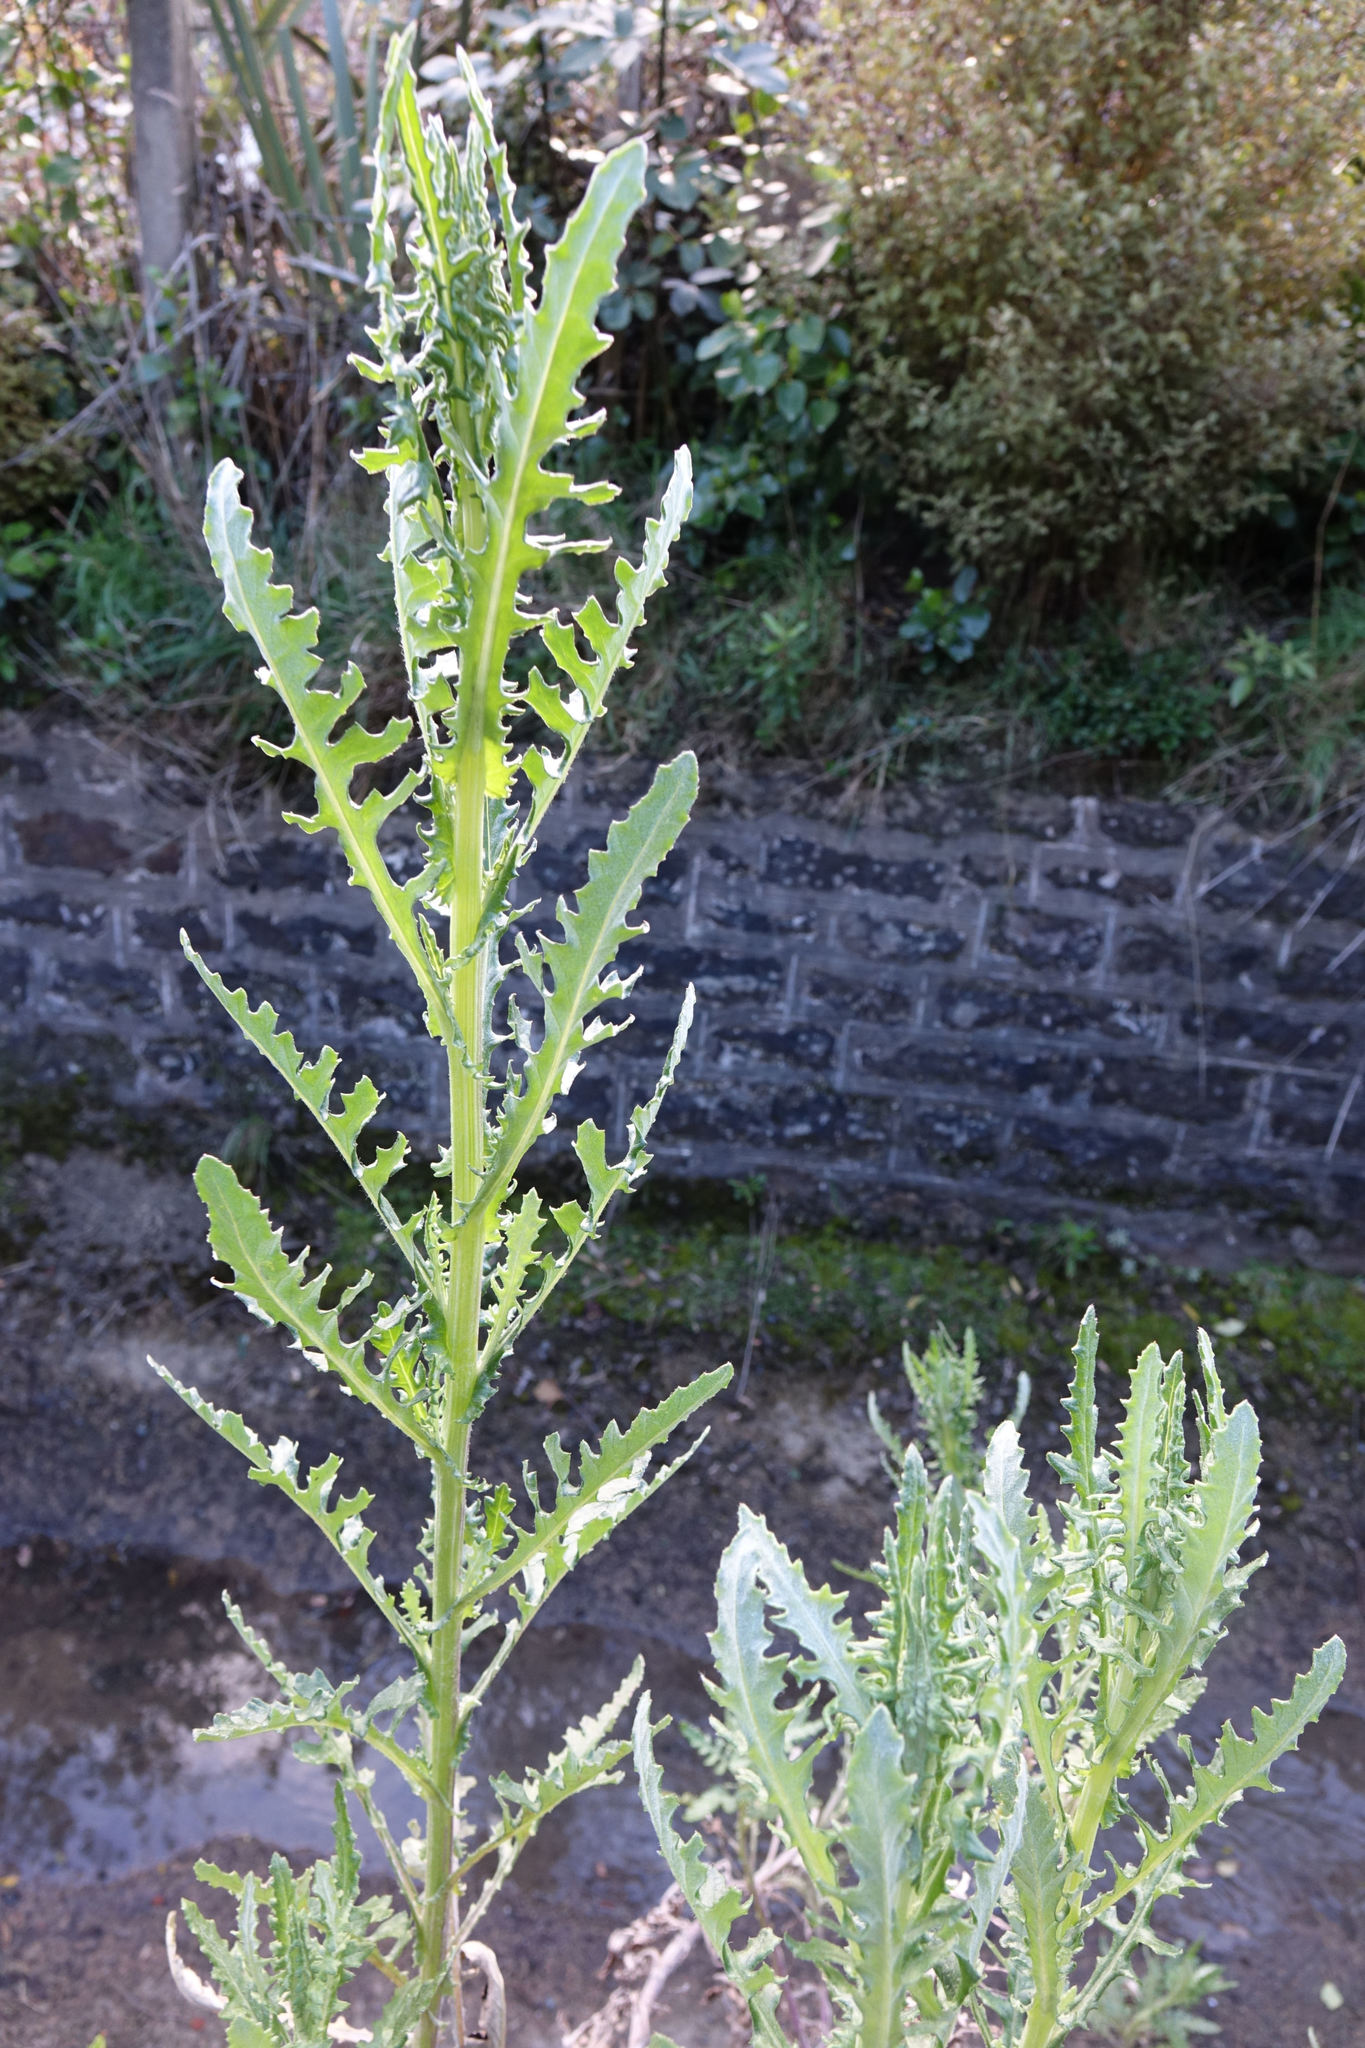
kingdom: Plantae
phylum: Tracheophyta
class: Magnoliopsida
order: Asterales
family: Asteraceae
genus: Senecio
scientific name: Senecio glomeratus
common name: Cutleaf burnweed
